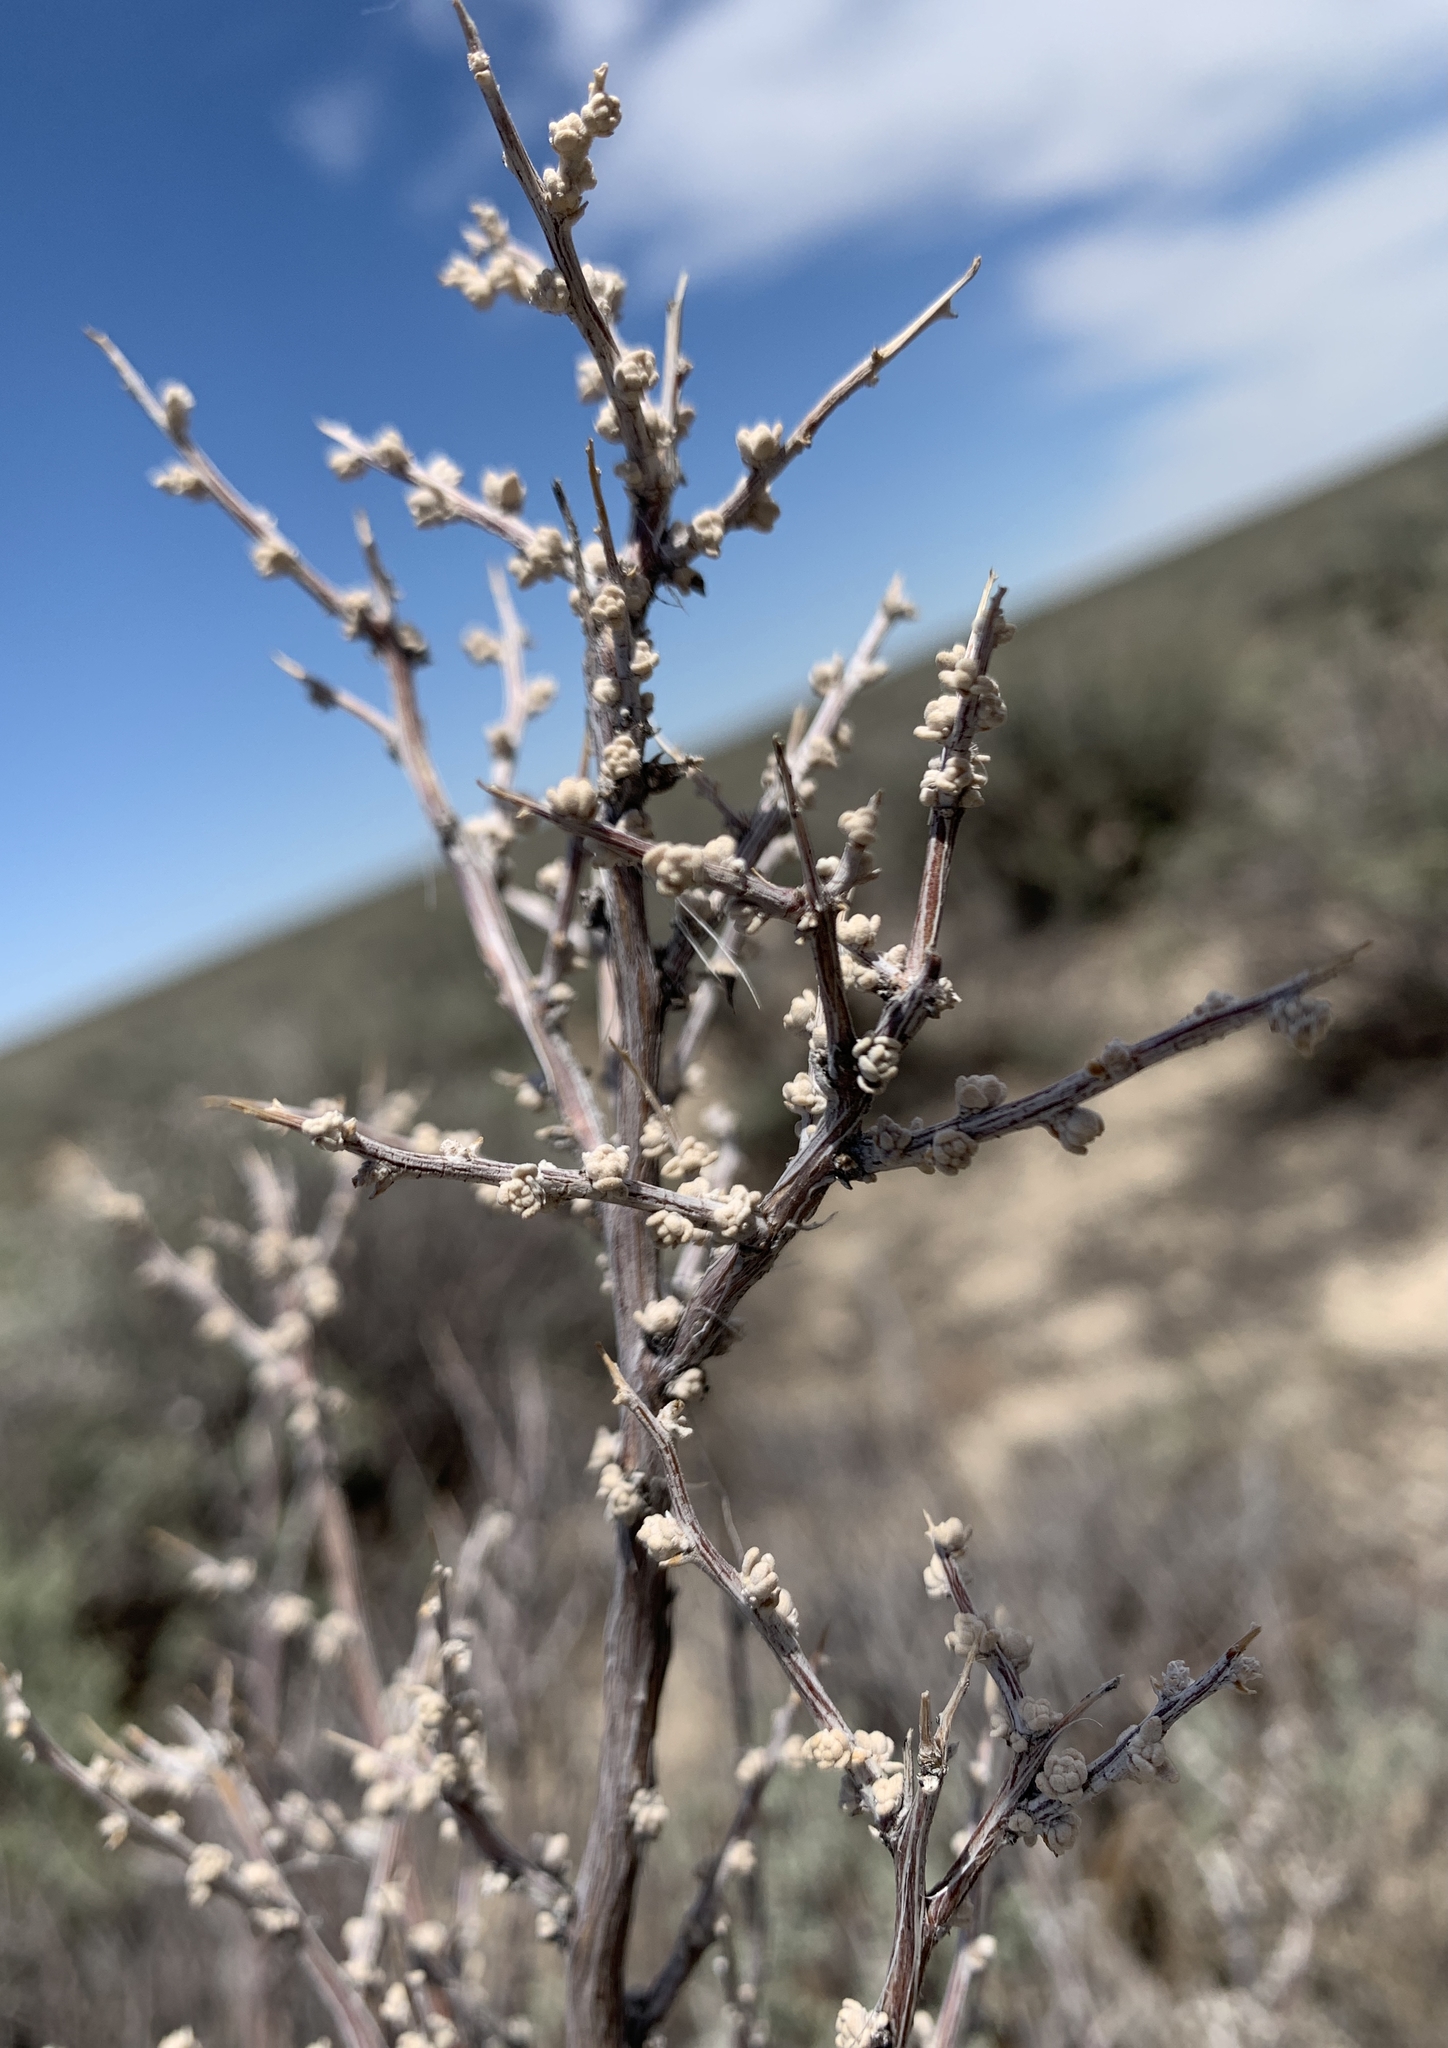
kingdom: Plantae
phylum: Tracheophyta
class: Magnoliopsida
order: Caryophyllales
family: Amaranthaceae
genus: Grayia
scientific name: Grayia spinosa
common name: Spiny hopsage
